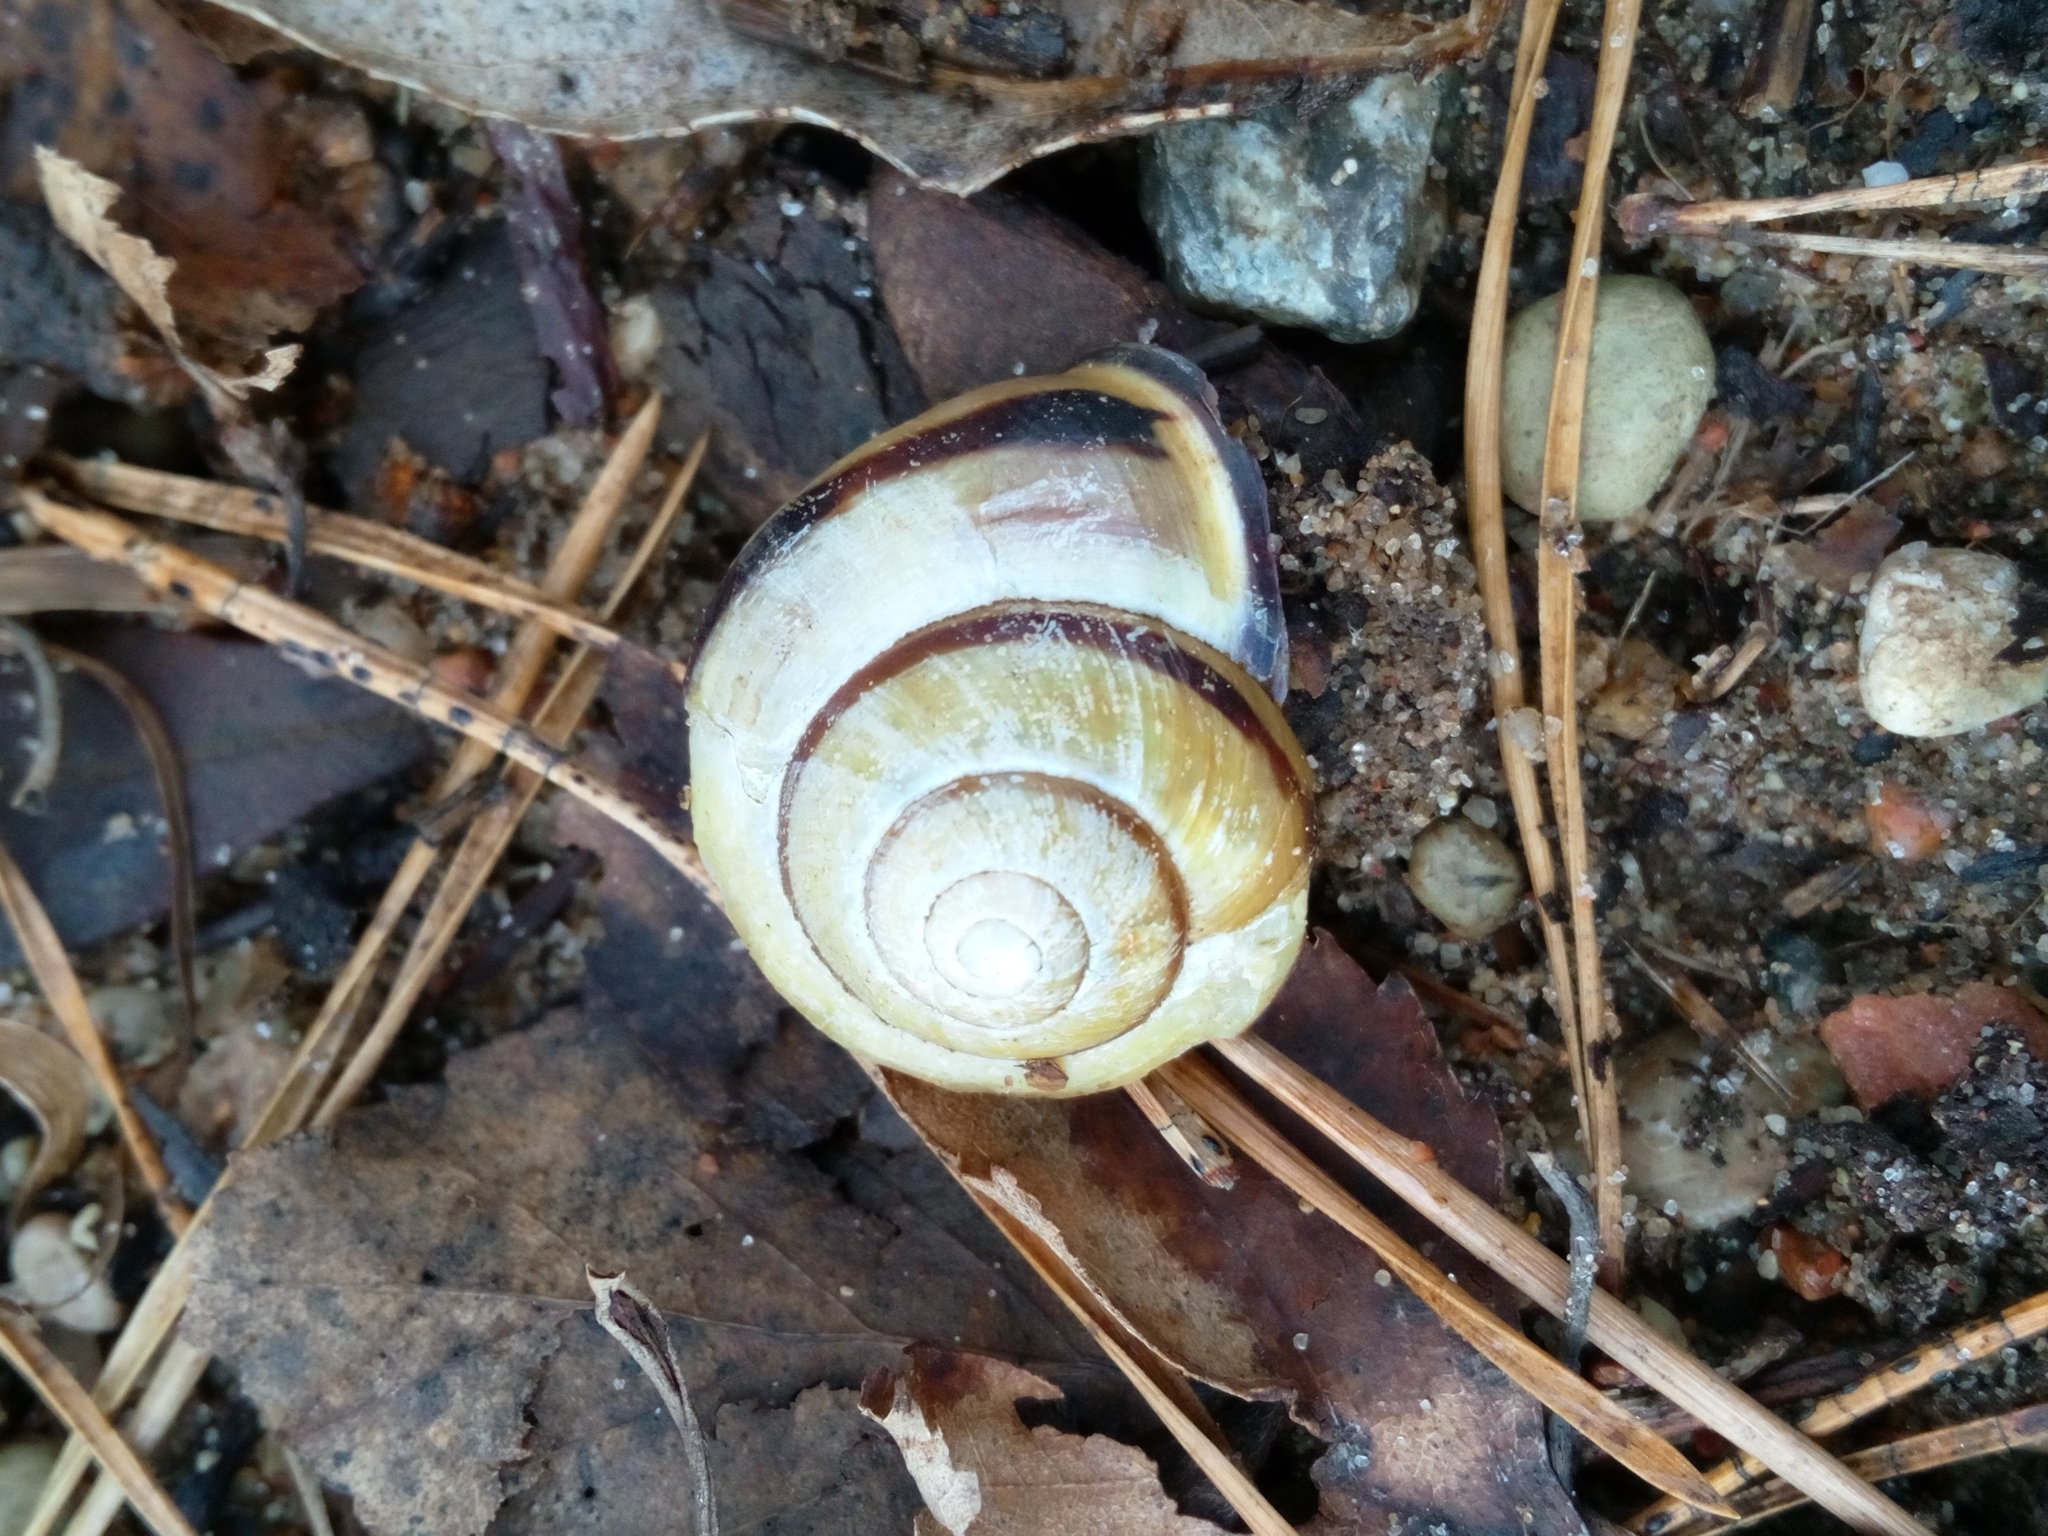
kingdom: Animalia
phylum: Mollusca
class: Gastropoda
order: Stylommatophora
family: Helicidae
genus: Cepaea
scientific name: Cepaea nemoralis
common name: Grovesnail
